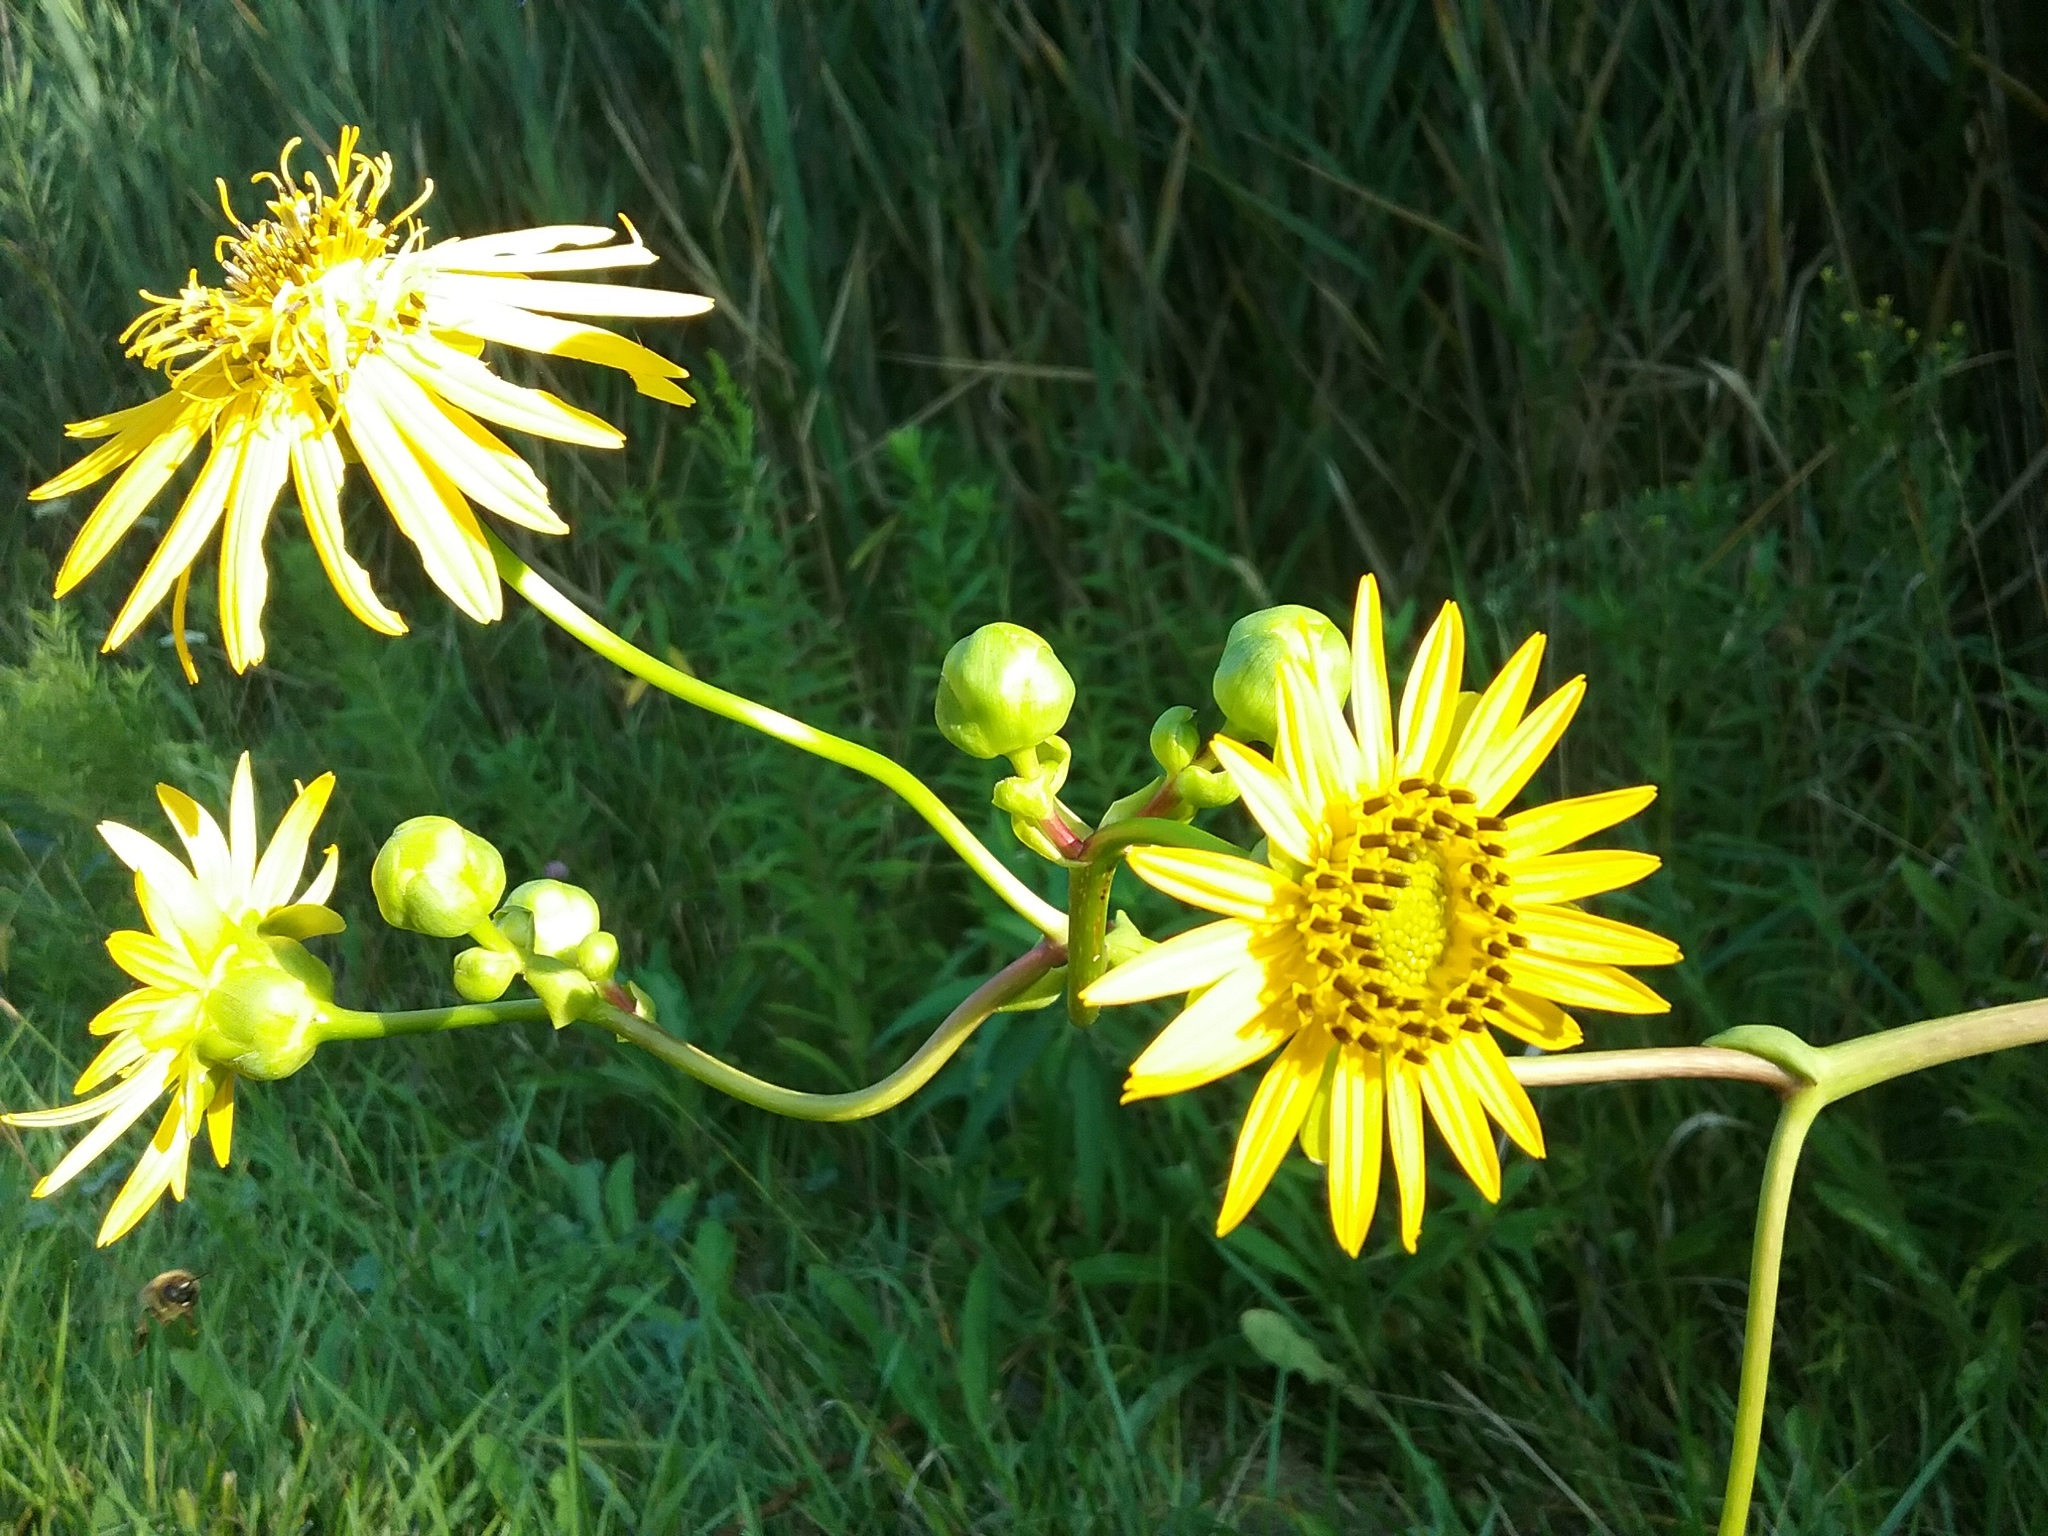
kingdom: Plantae
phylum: Tracheophyta
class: Magnoliopsida
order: Asterales
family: Asteraceae
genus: Silphium
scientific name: Silphium terebinthinaceum
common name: Basal-leaf rosinweed
